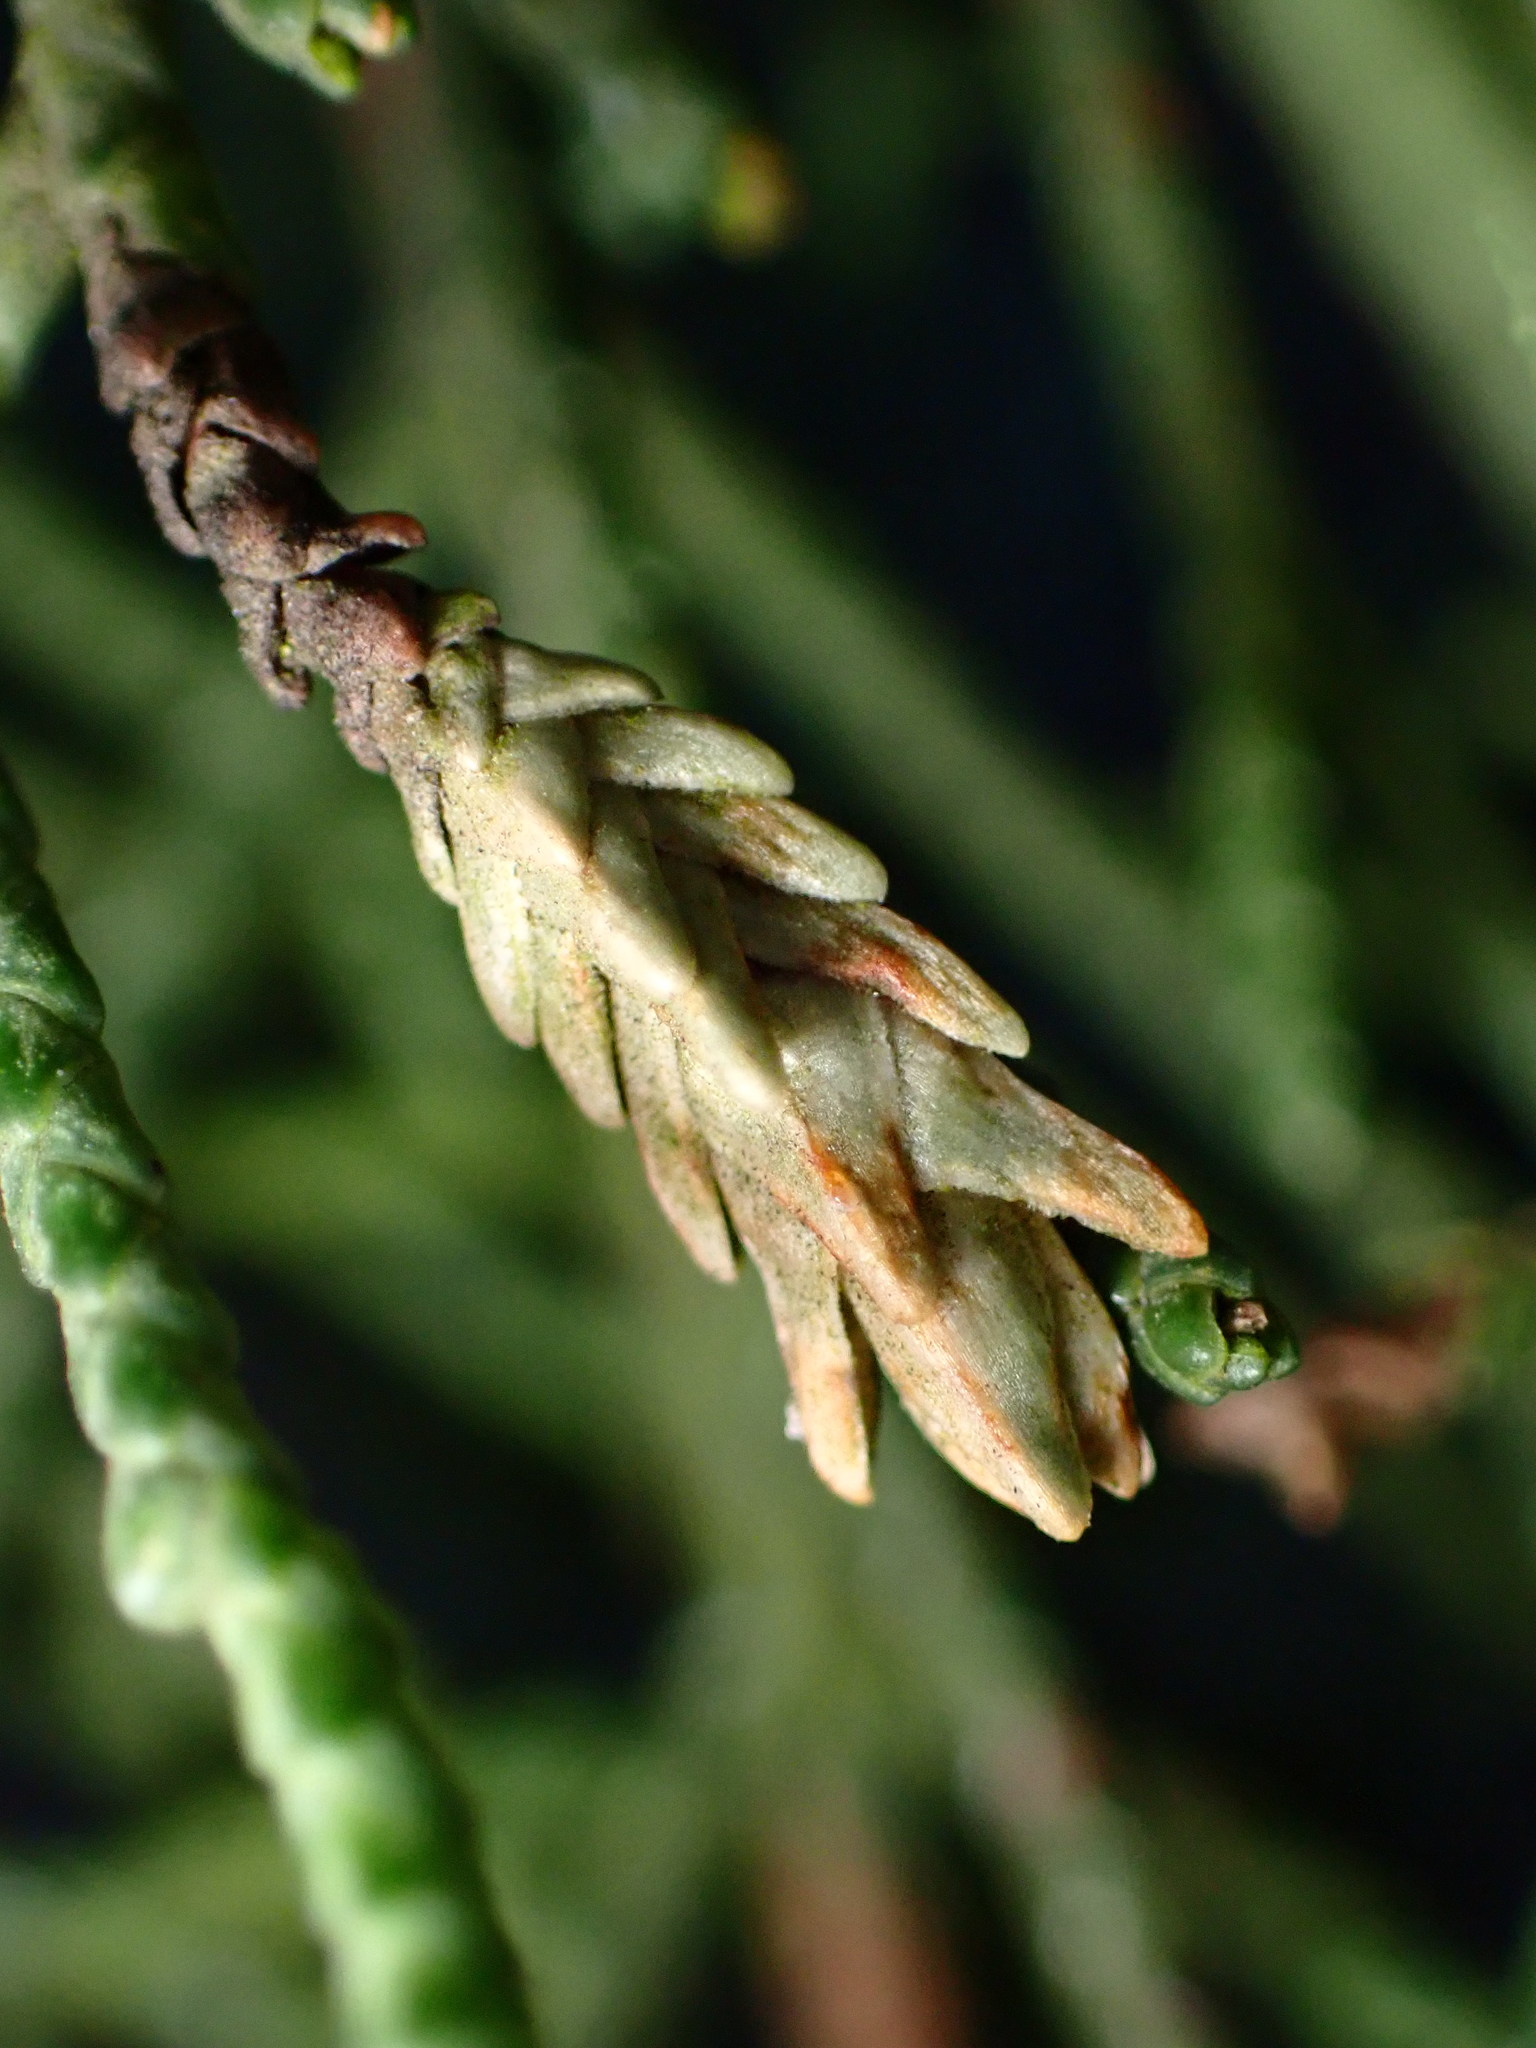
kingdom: Animalia
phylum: Arthropoda
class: Insecta
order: Diptera
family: Cecidomyiidae
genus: Oligotrophus
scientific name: Oligotrophus cupressi
